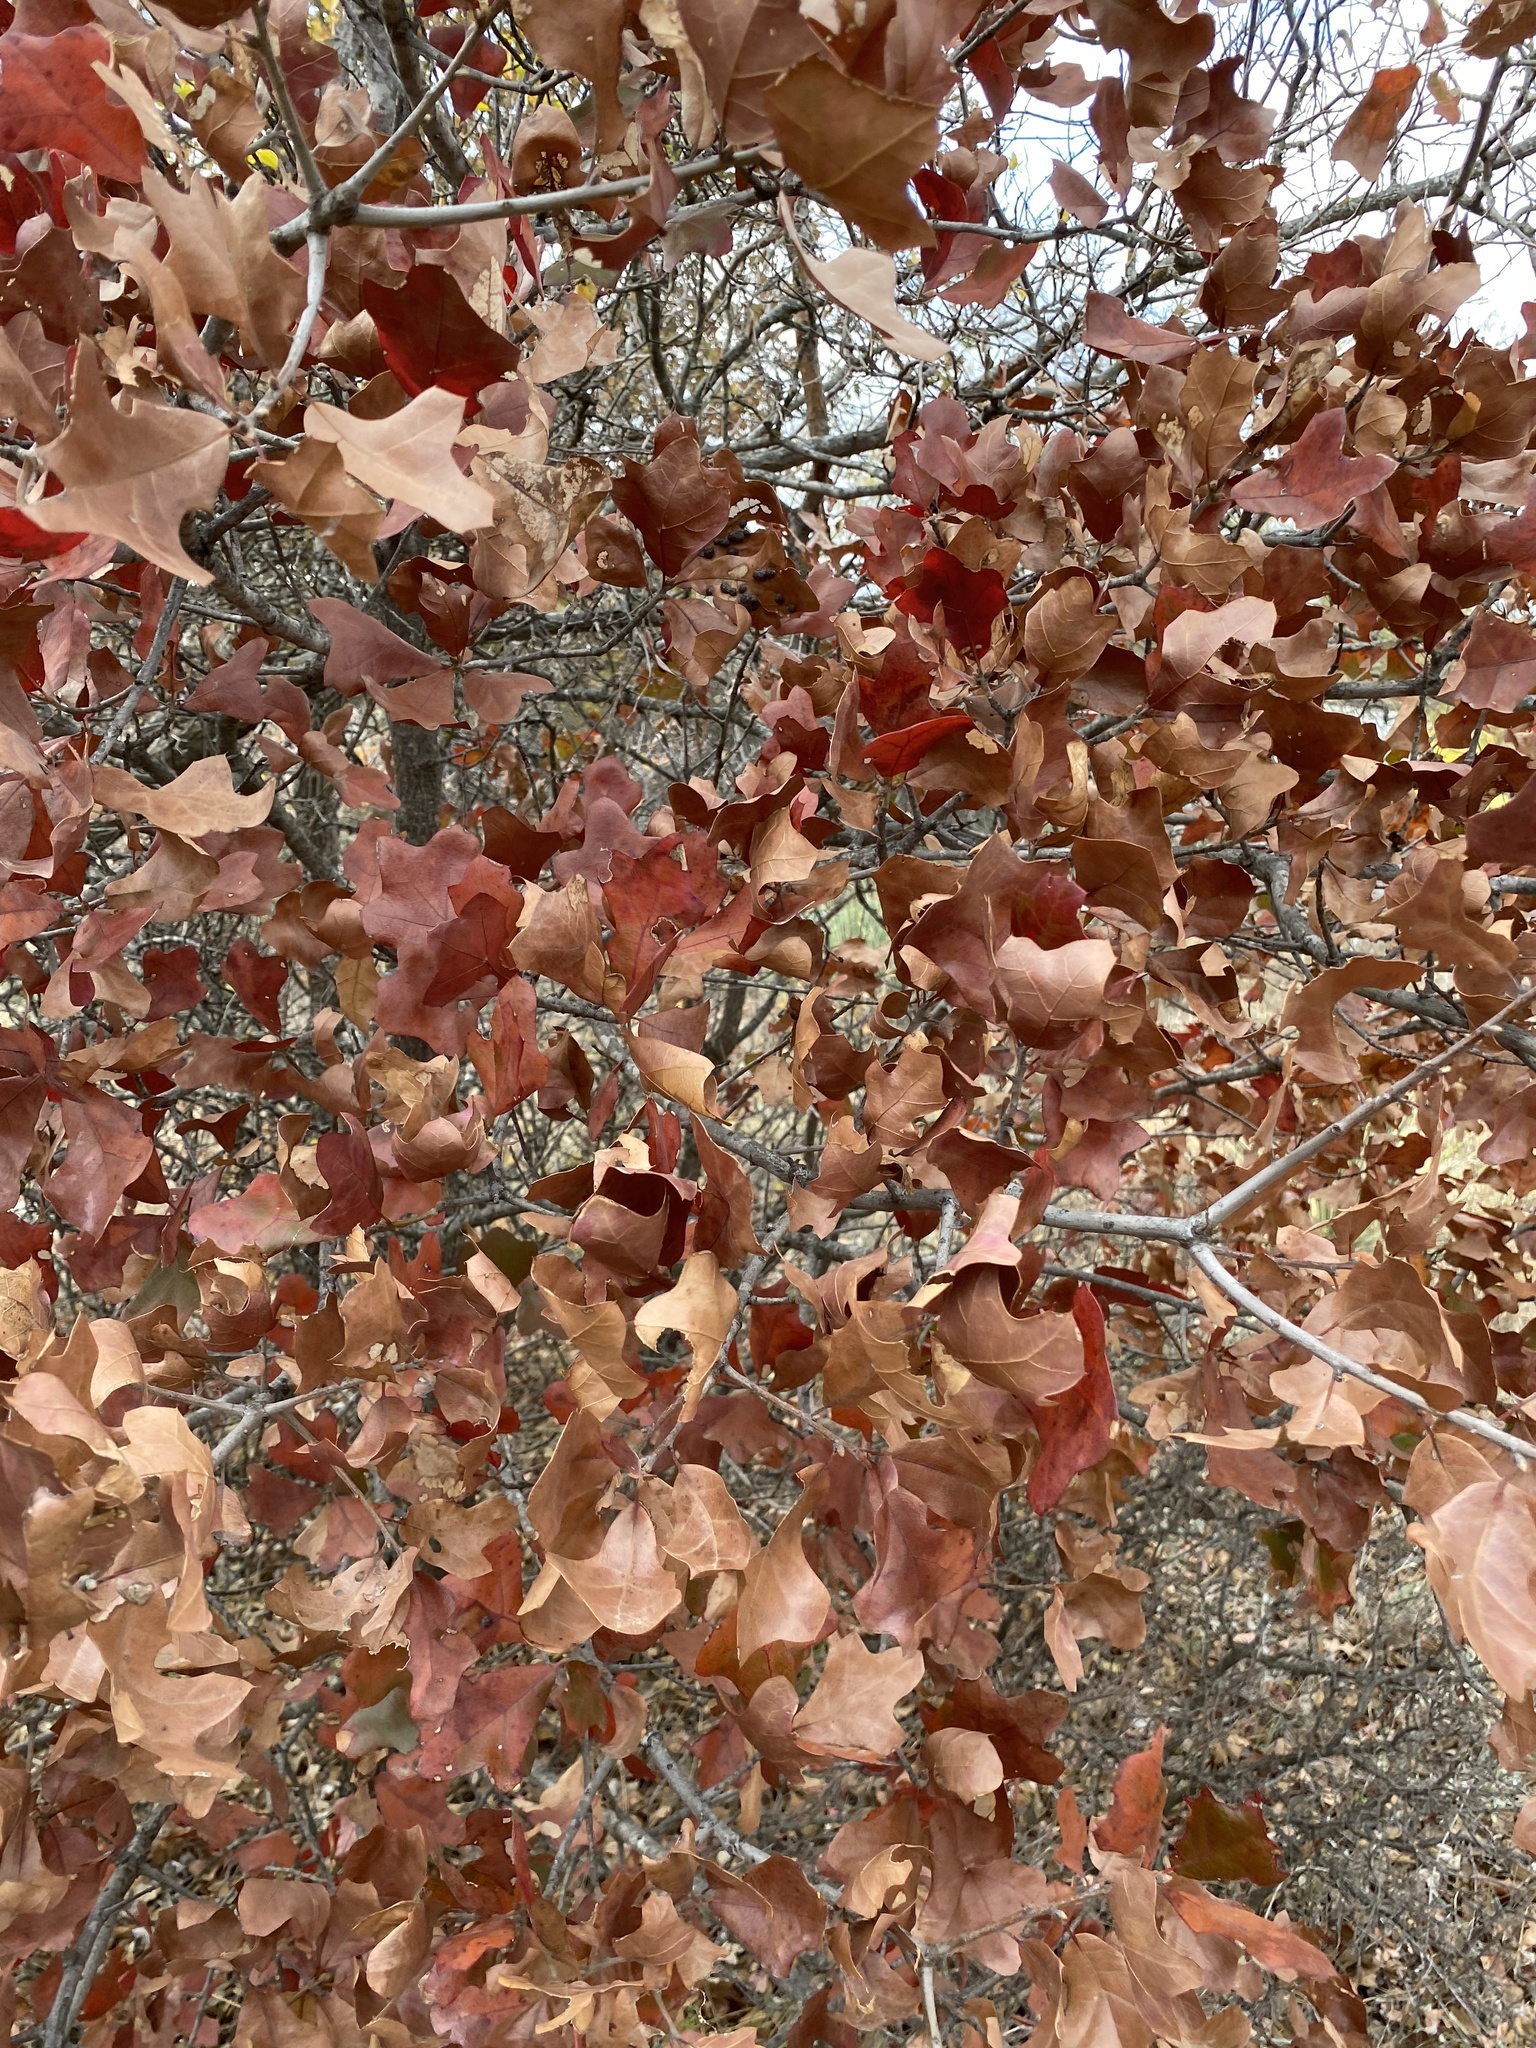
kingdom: Plantae
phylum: Tracheophyta
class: Magnoliopsida
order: Fagales
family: Fagaceae
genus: Quercus
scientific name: Quercus marilandica
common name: Blackjack oak
